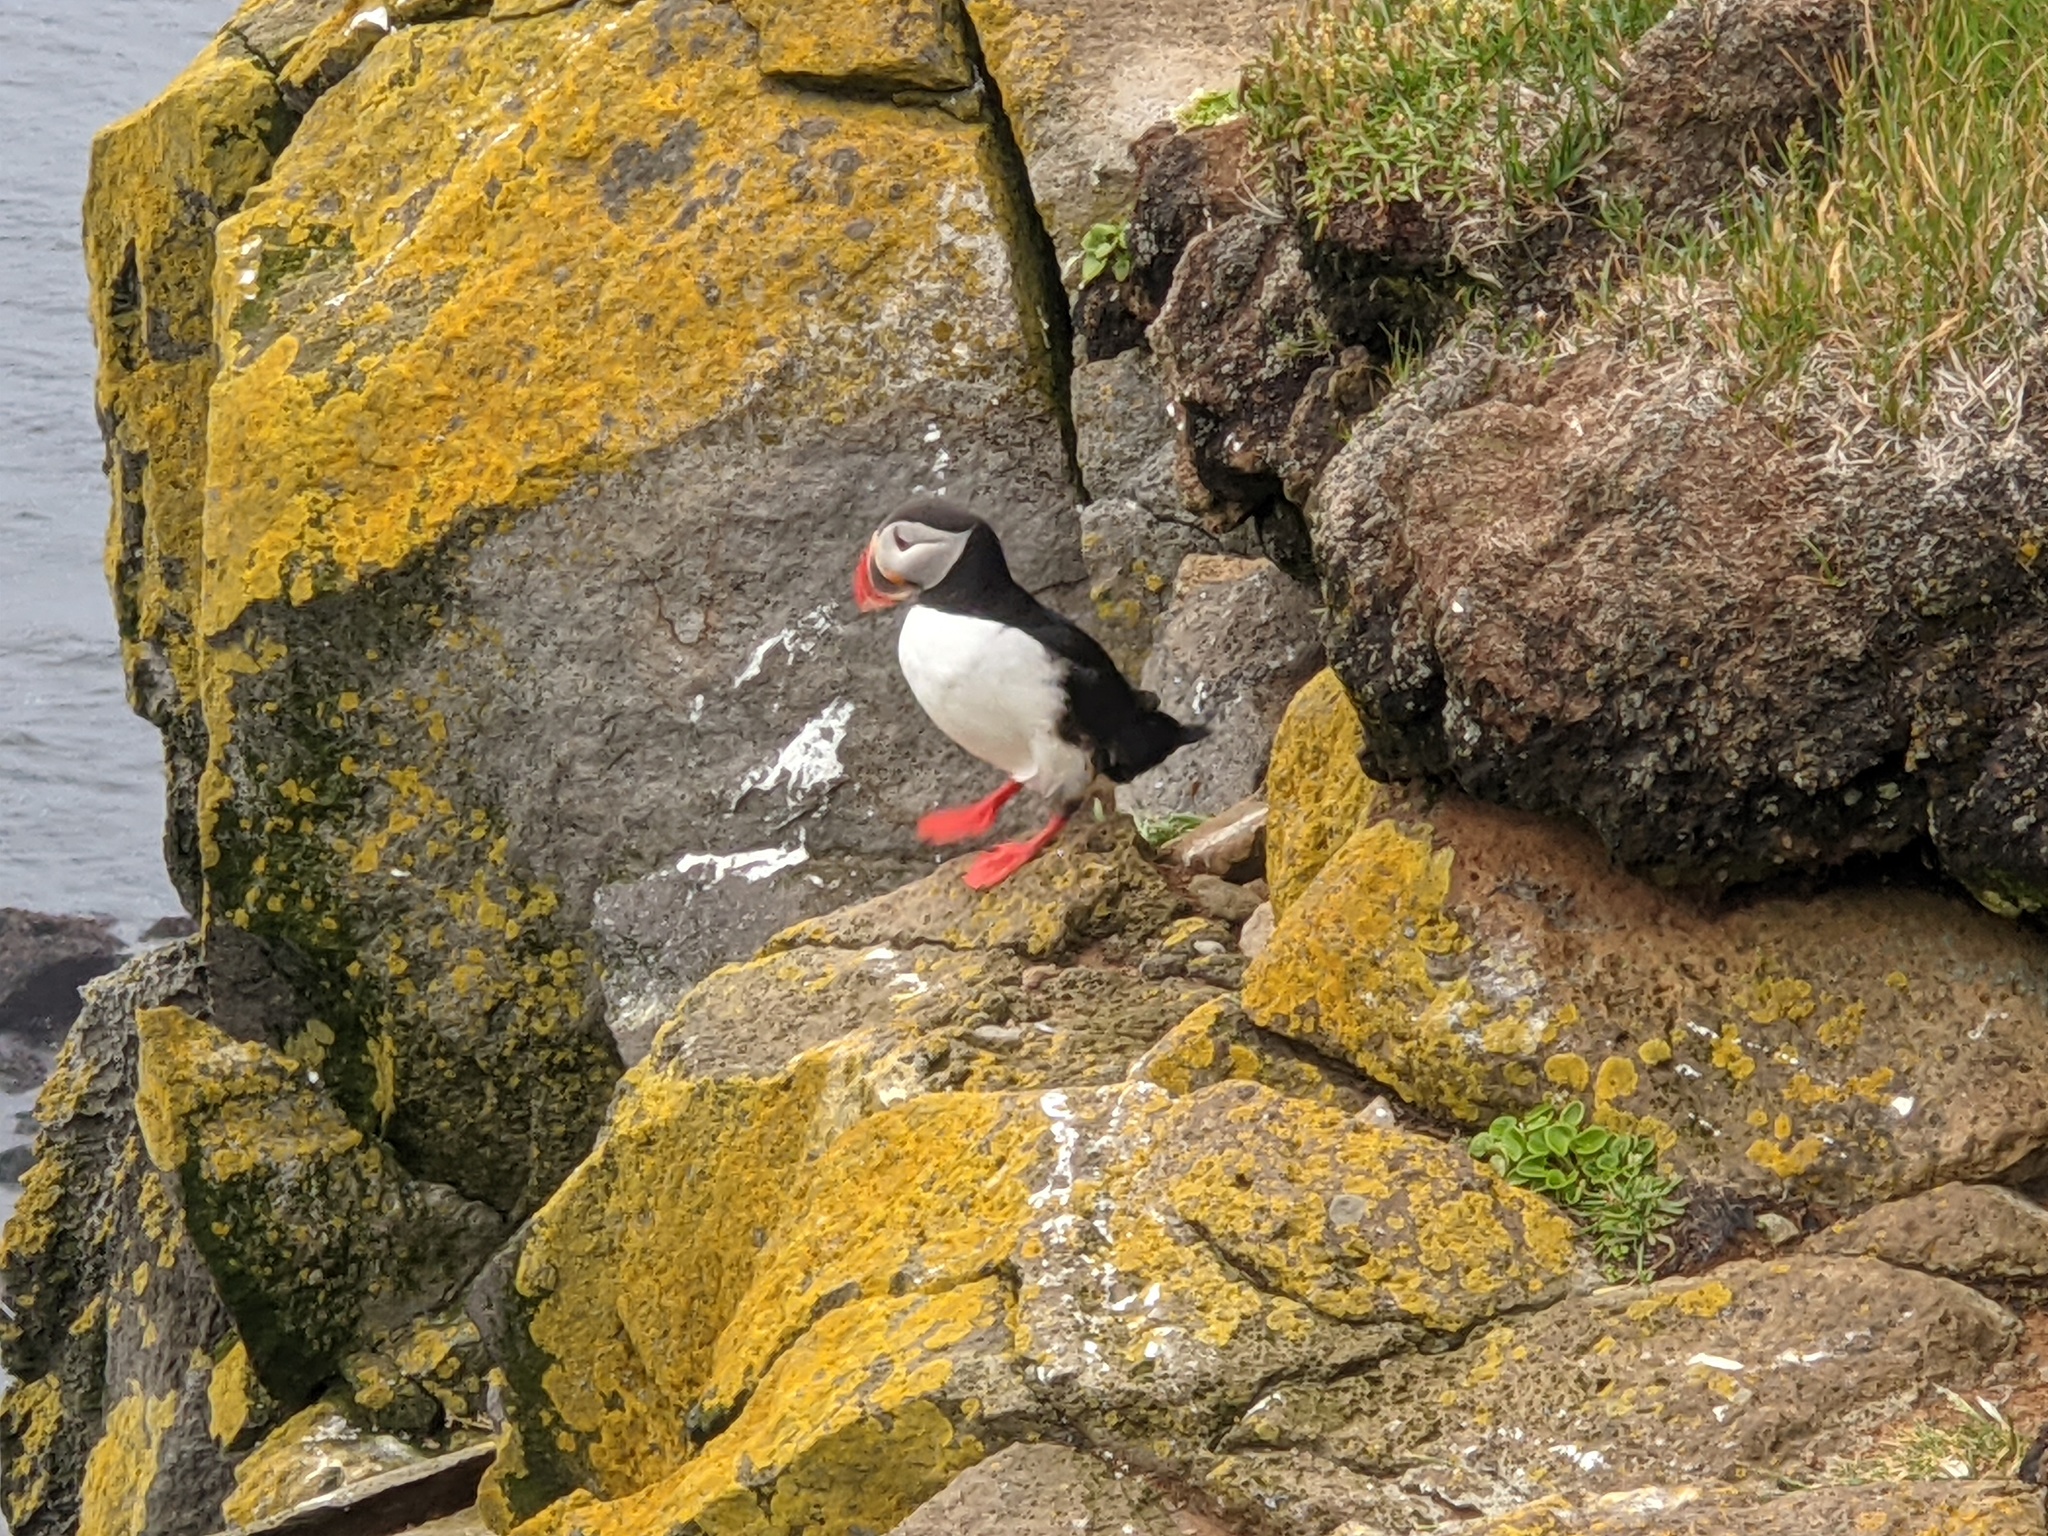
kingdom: Animalia
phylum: Chordata
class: Aves
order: Charadriiformes
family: Alcidae
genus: Fratercula
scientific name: Fratercula arctica
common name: Atlantic puffin
